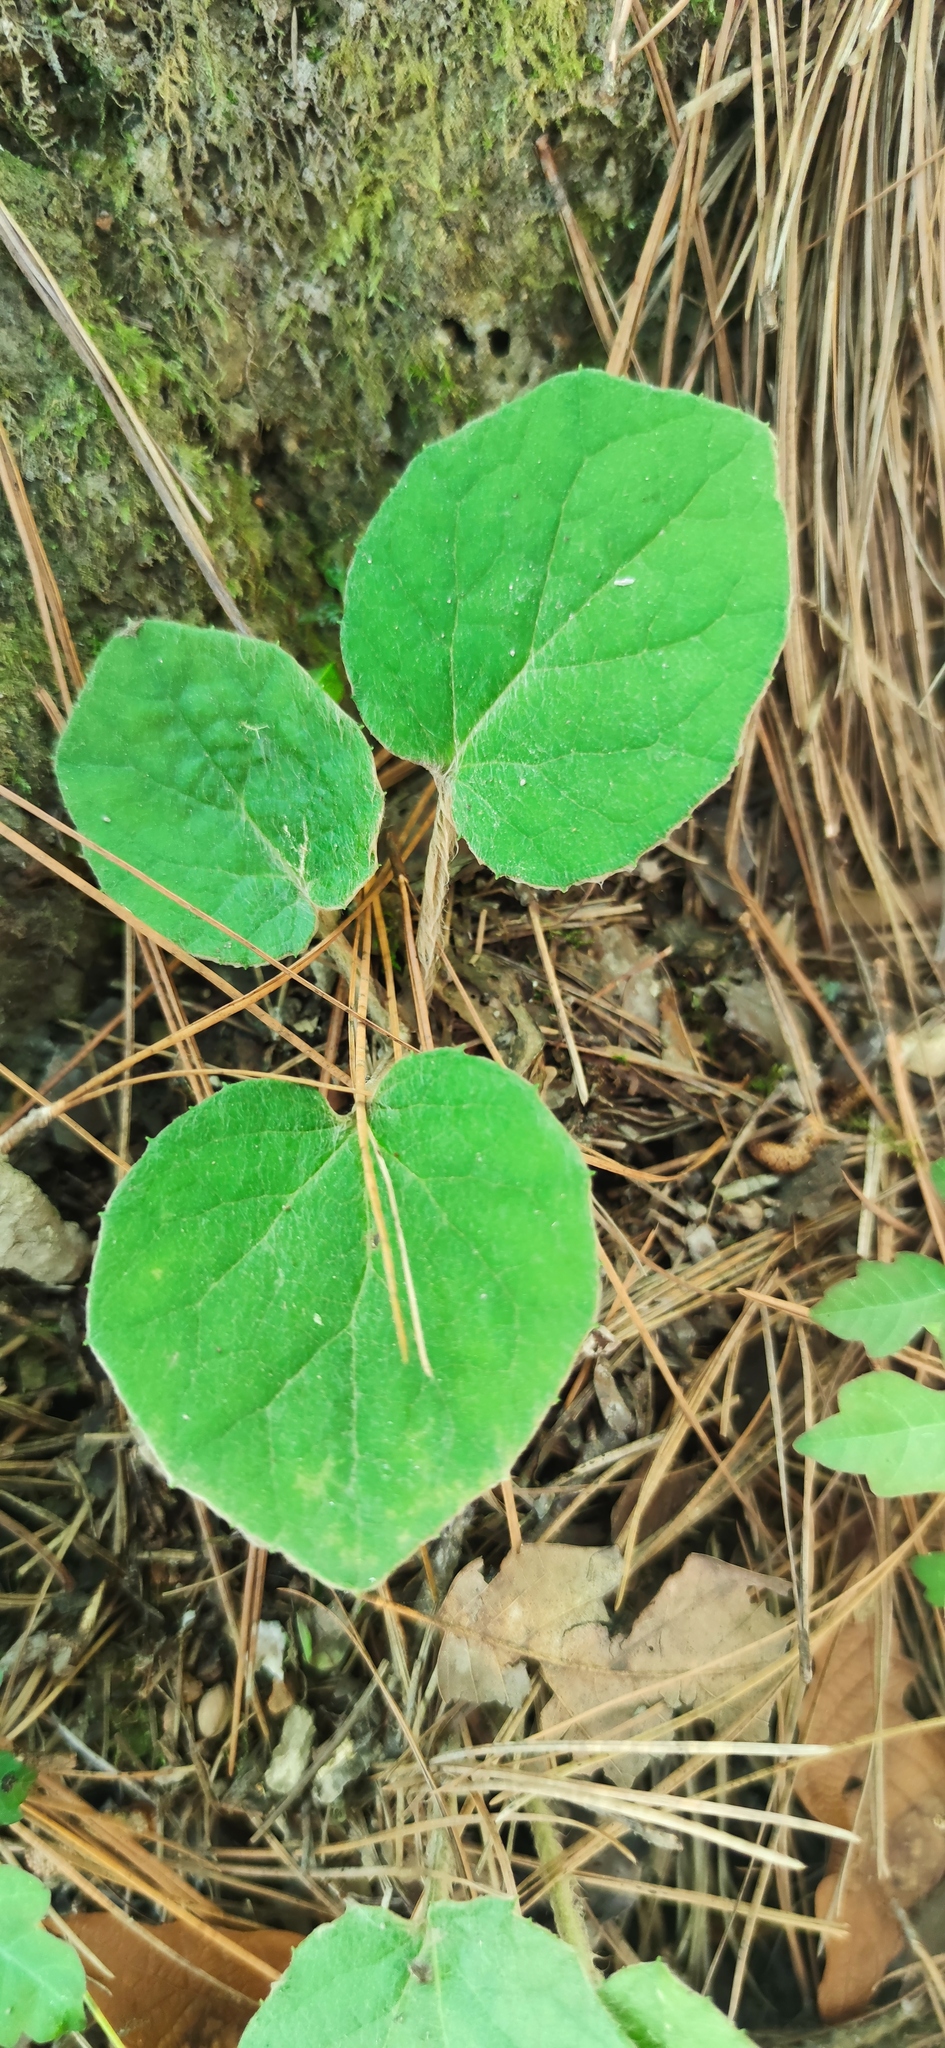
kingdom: Plantae
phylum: Tracheophyta
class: Magnoliopsida
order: Asterales
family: Asteraceae
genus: Roldana
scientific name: Roldana sundbergii
